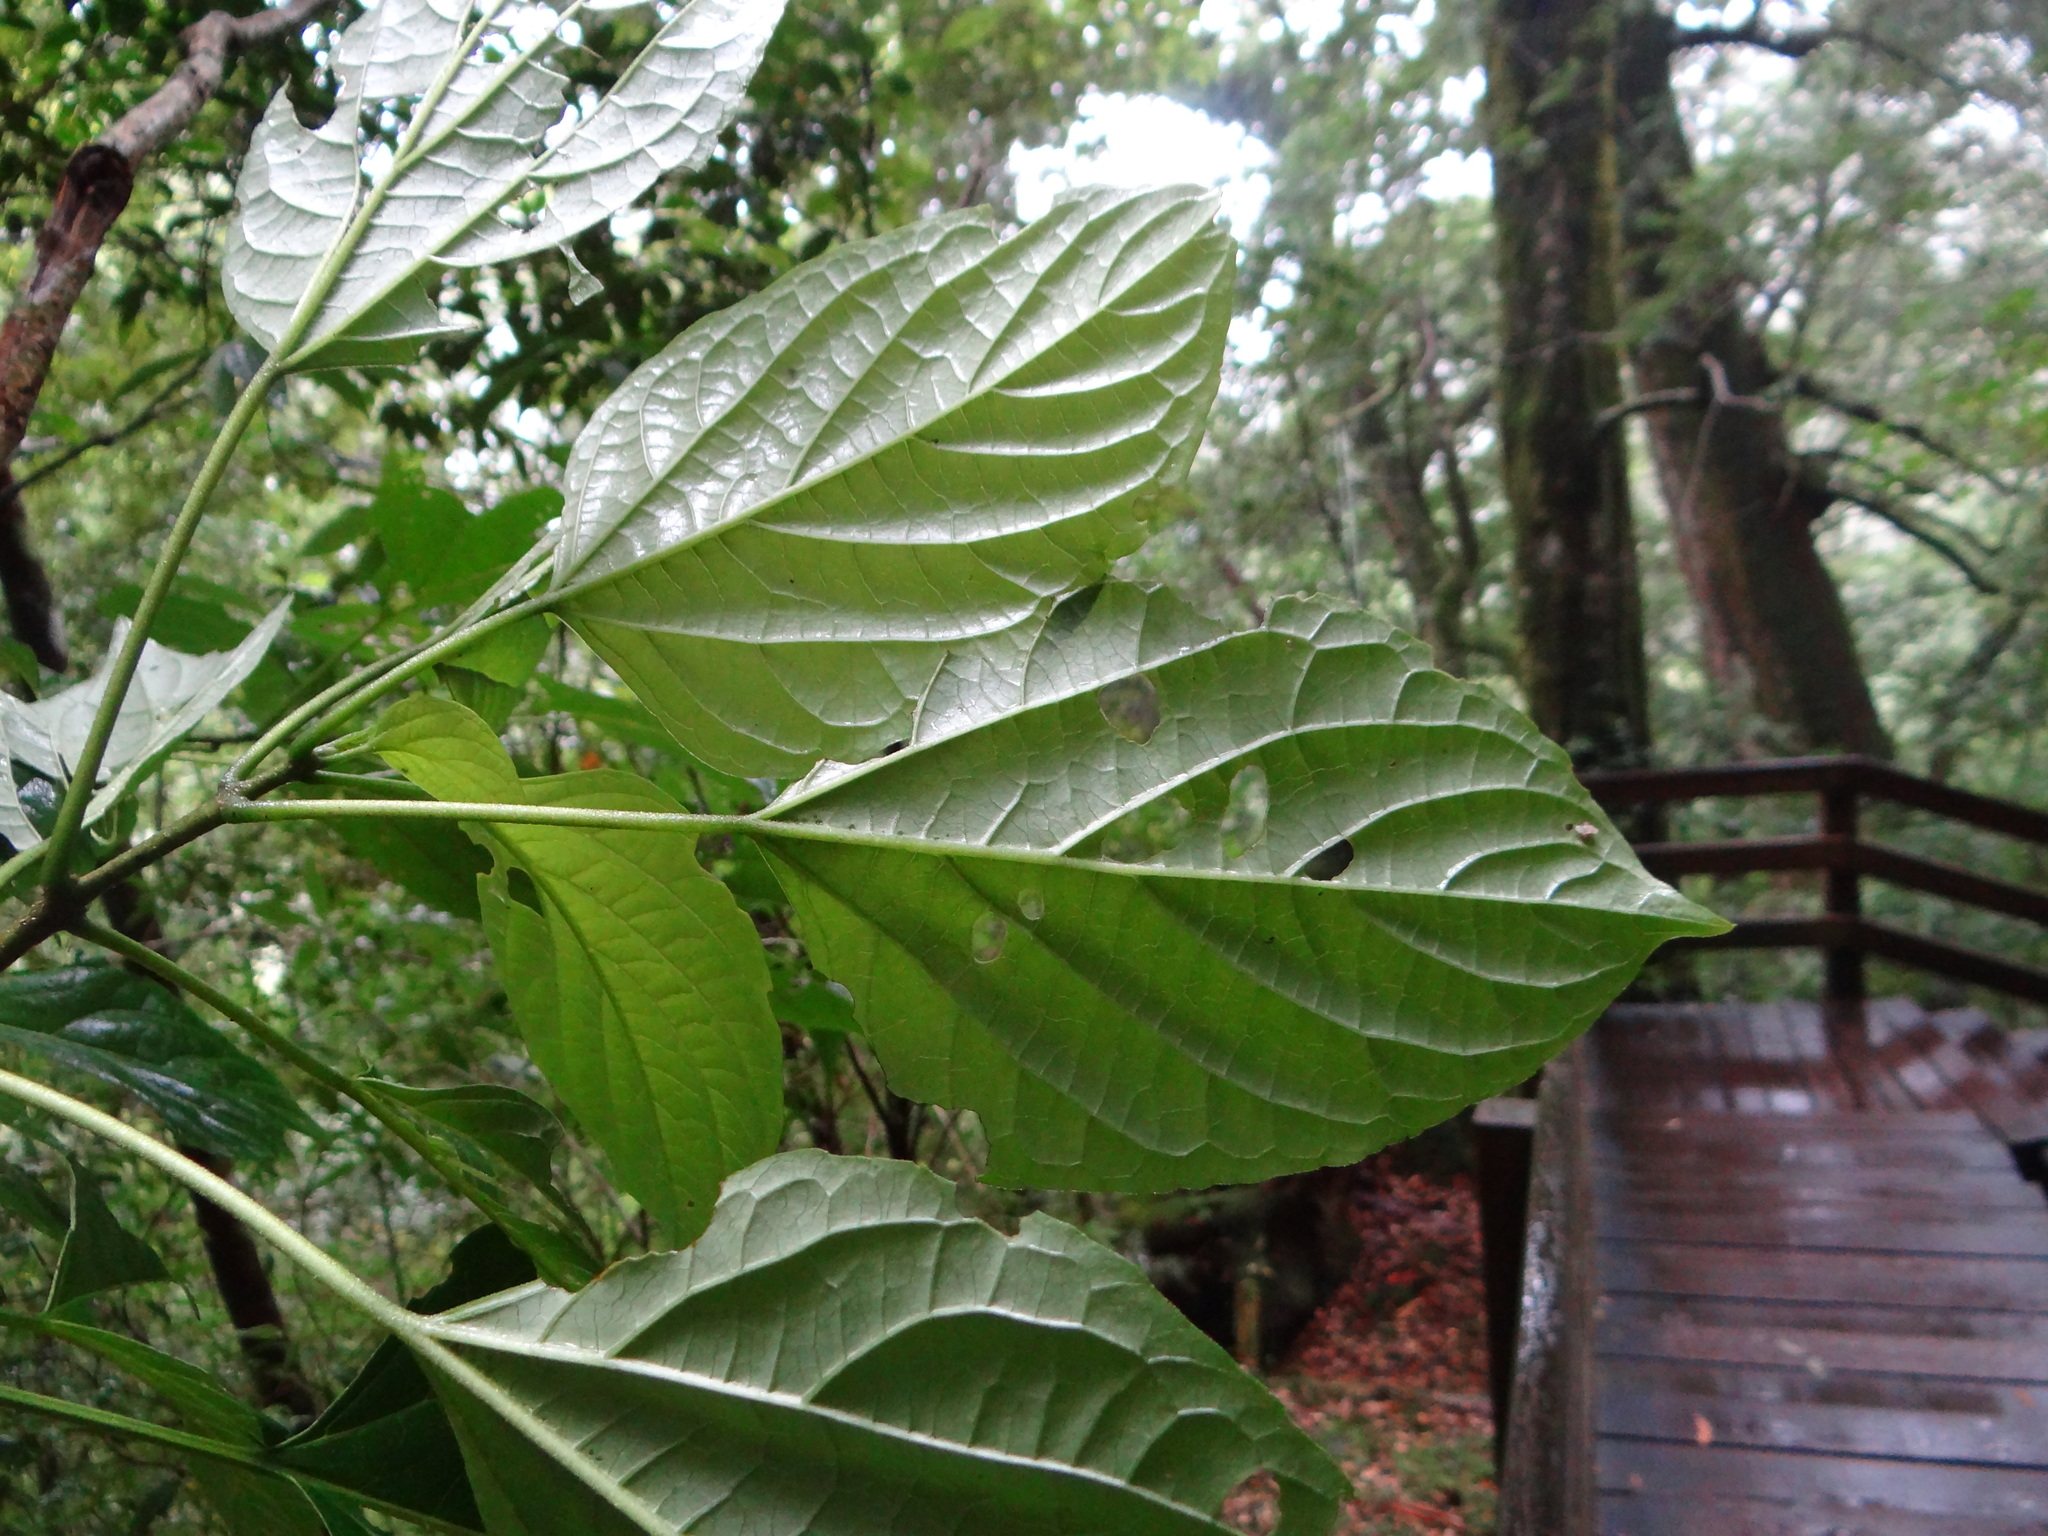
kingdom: Plantae
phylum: Tracheophyta
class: Magnoliopsida
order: Lamiales
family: Lamiaceae
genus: Clerodendrum
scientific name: Clerodendrum trichotomum
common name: Harlequin glorybower
